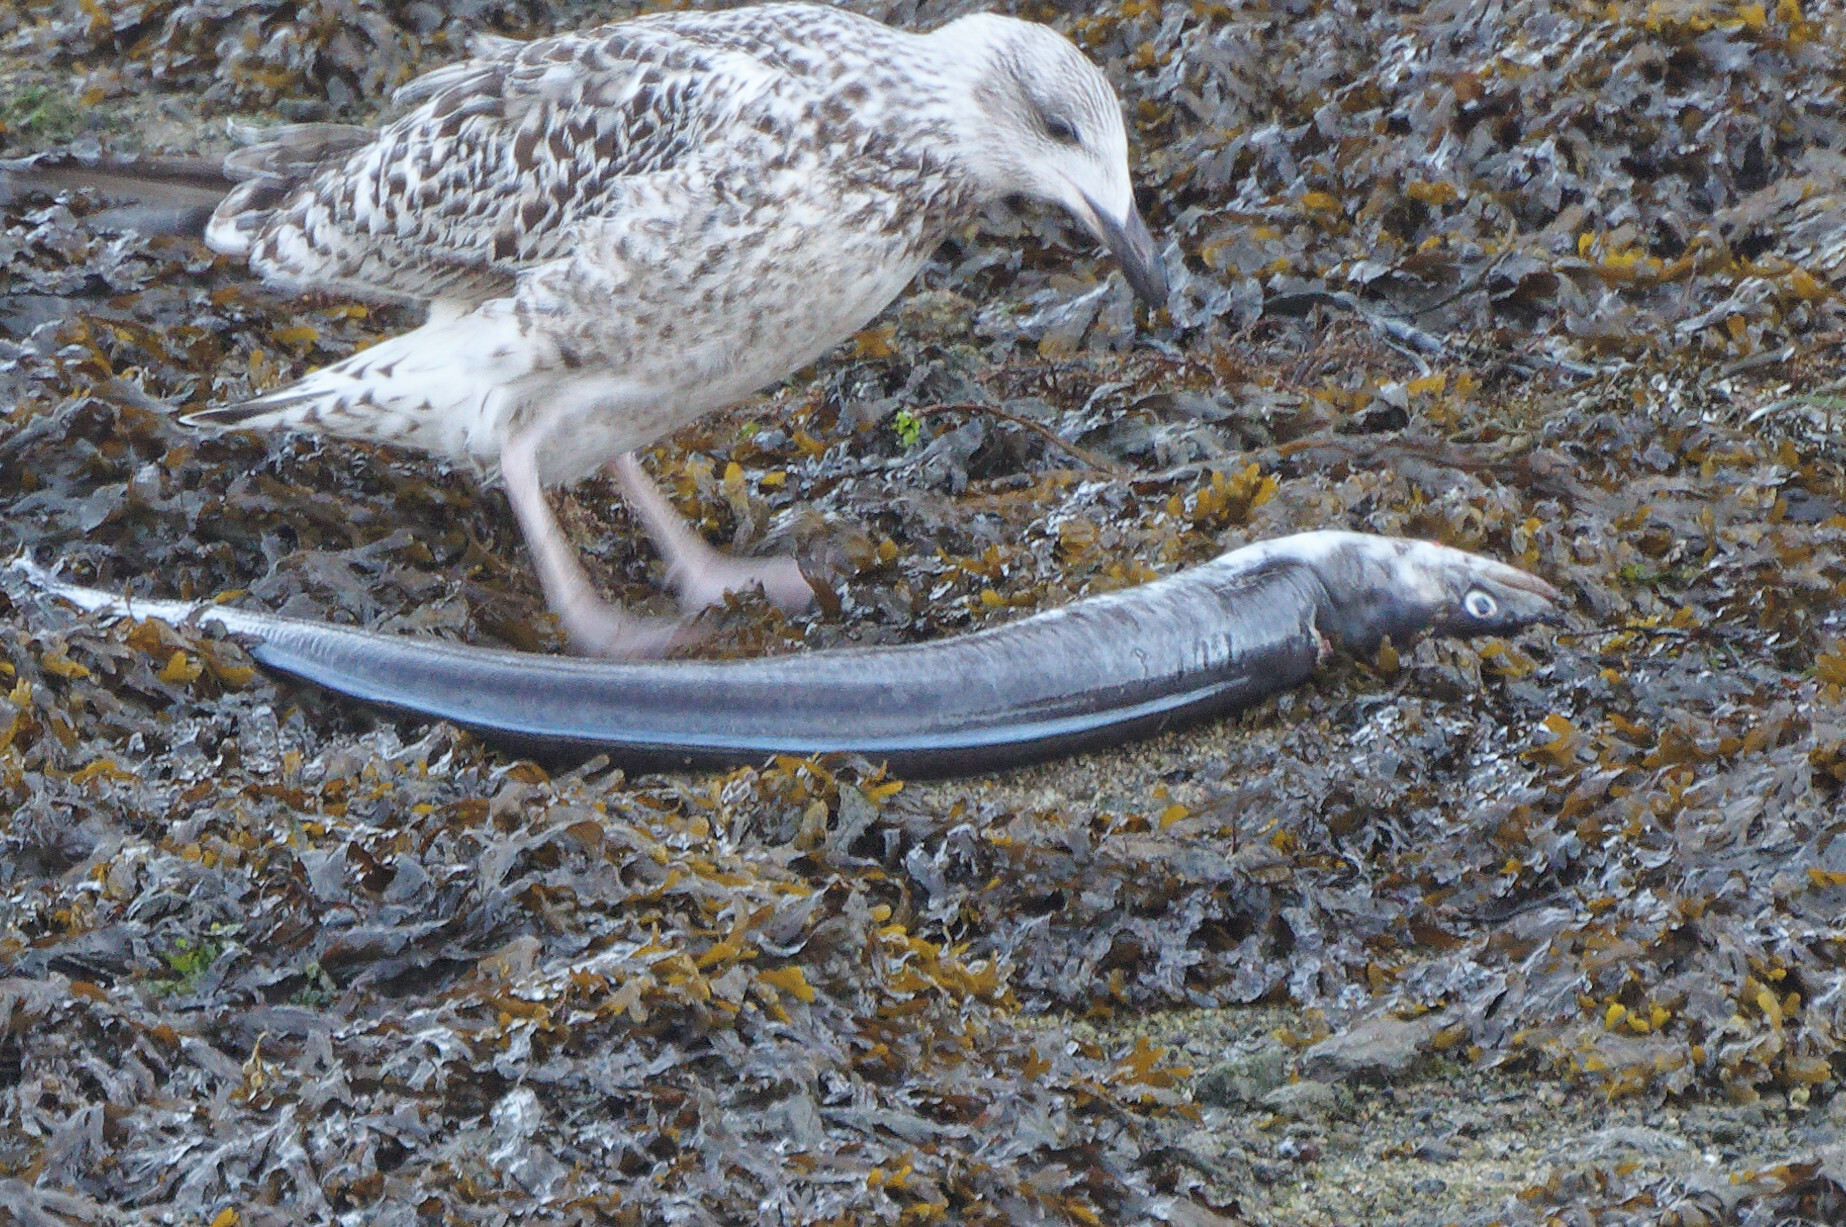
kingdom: Animalia
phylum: Chordata
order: Anguilliformes
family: Congridae
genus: Conger
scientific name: Conger conger
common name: Conger eel
